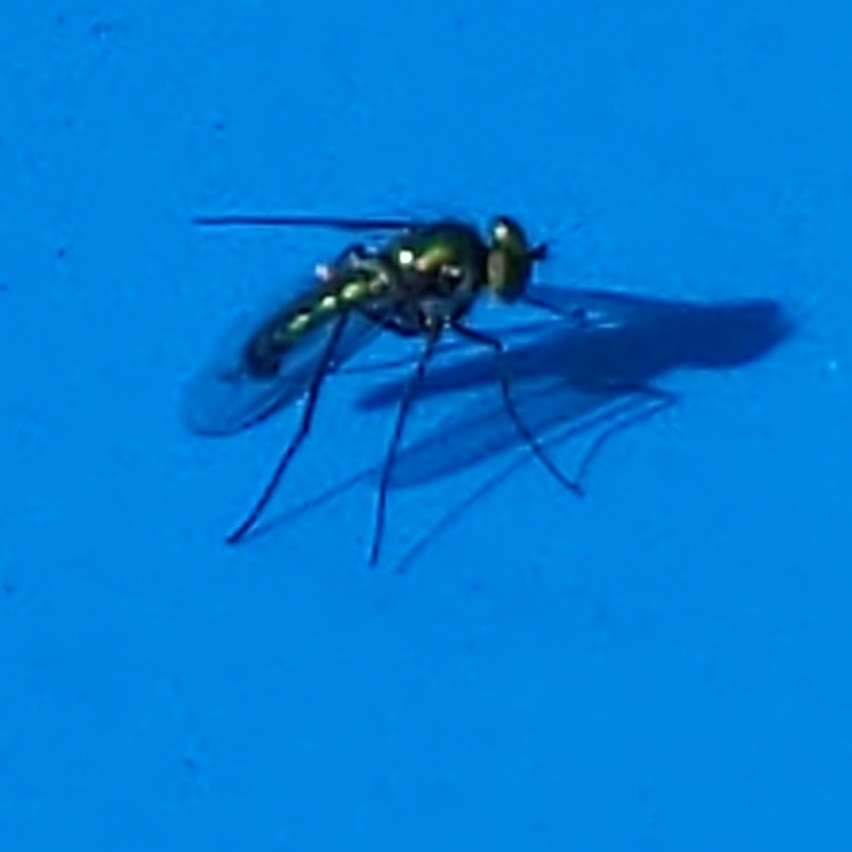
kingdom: Animalia
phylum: Arthropoda
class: Insecta
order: Diptera
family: Dolichopodidae
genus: Condylostylus
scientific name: Condylostylus longicornis
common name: Long-legged fly
